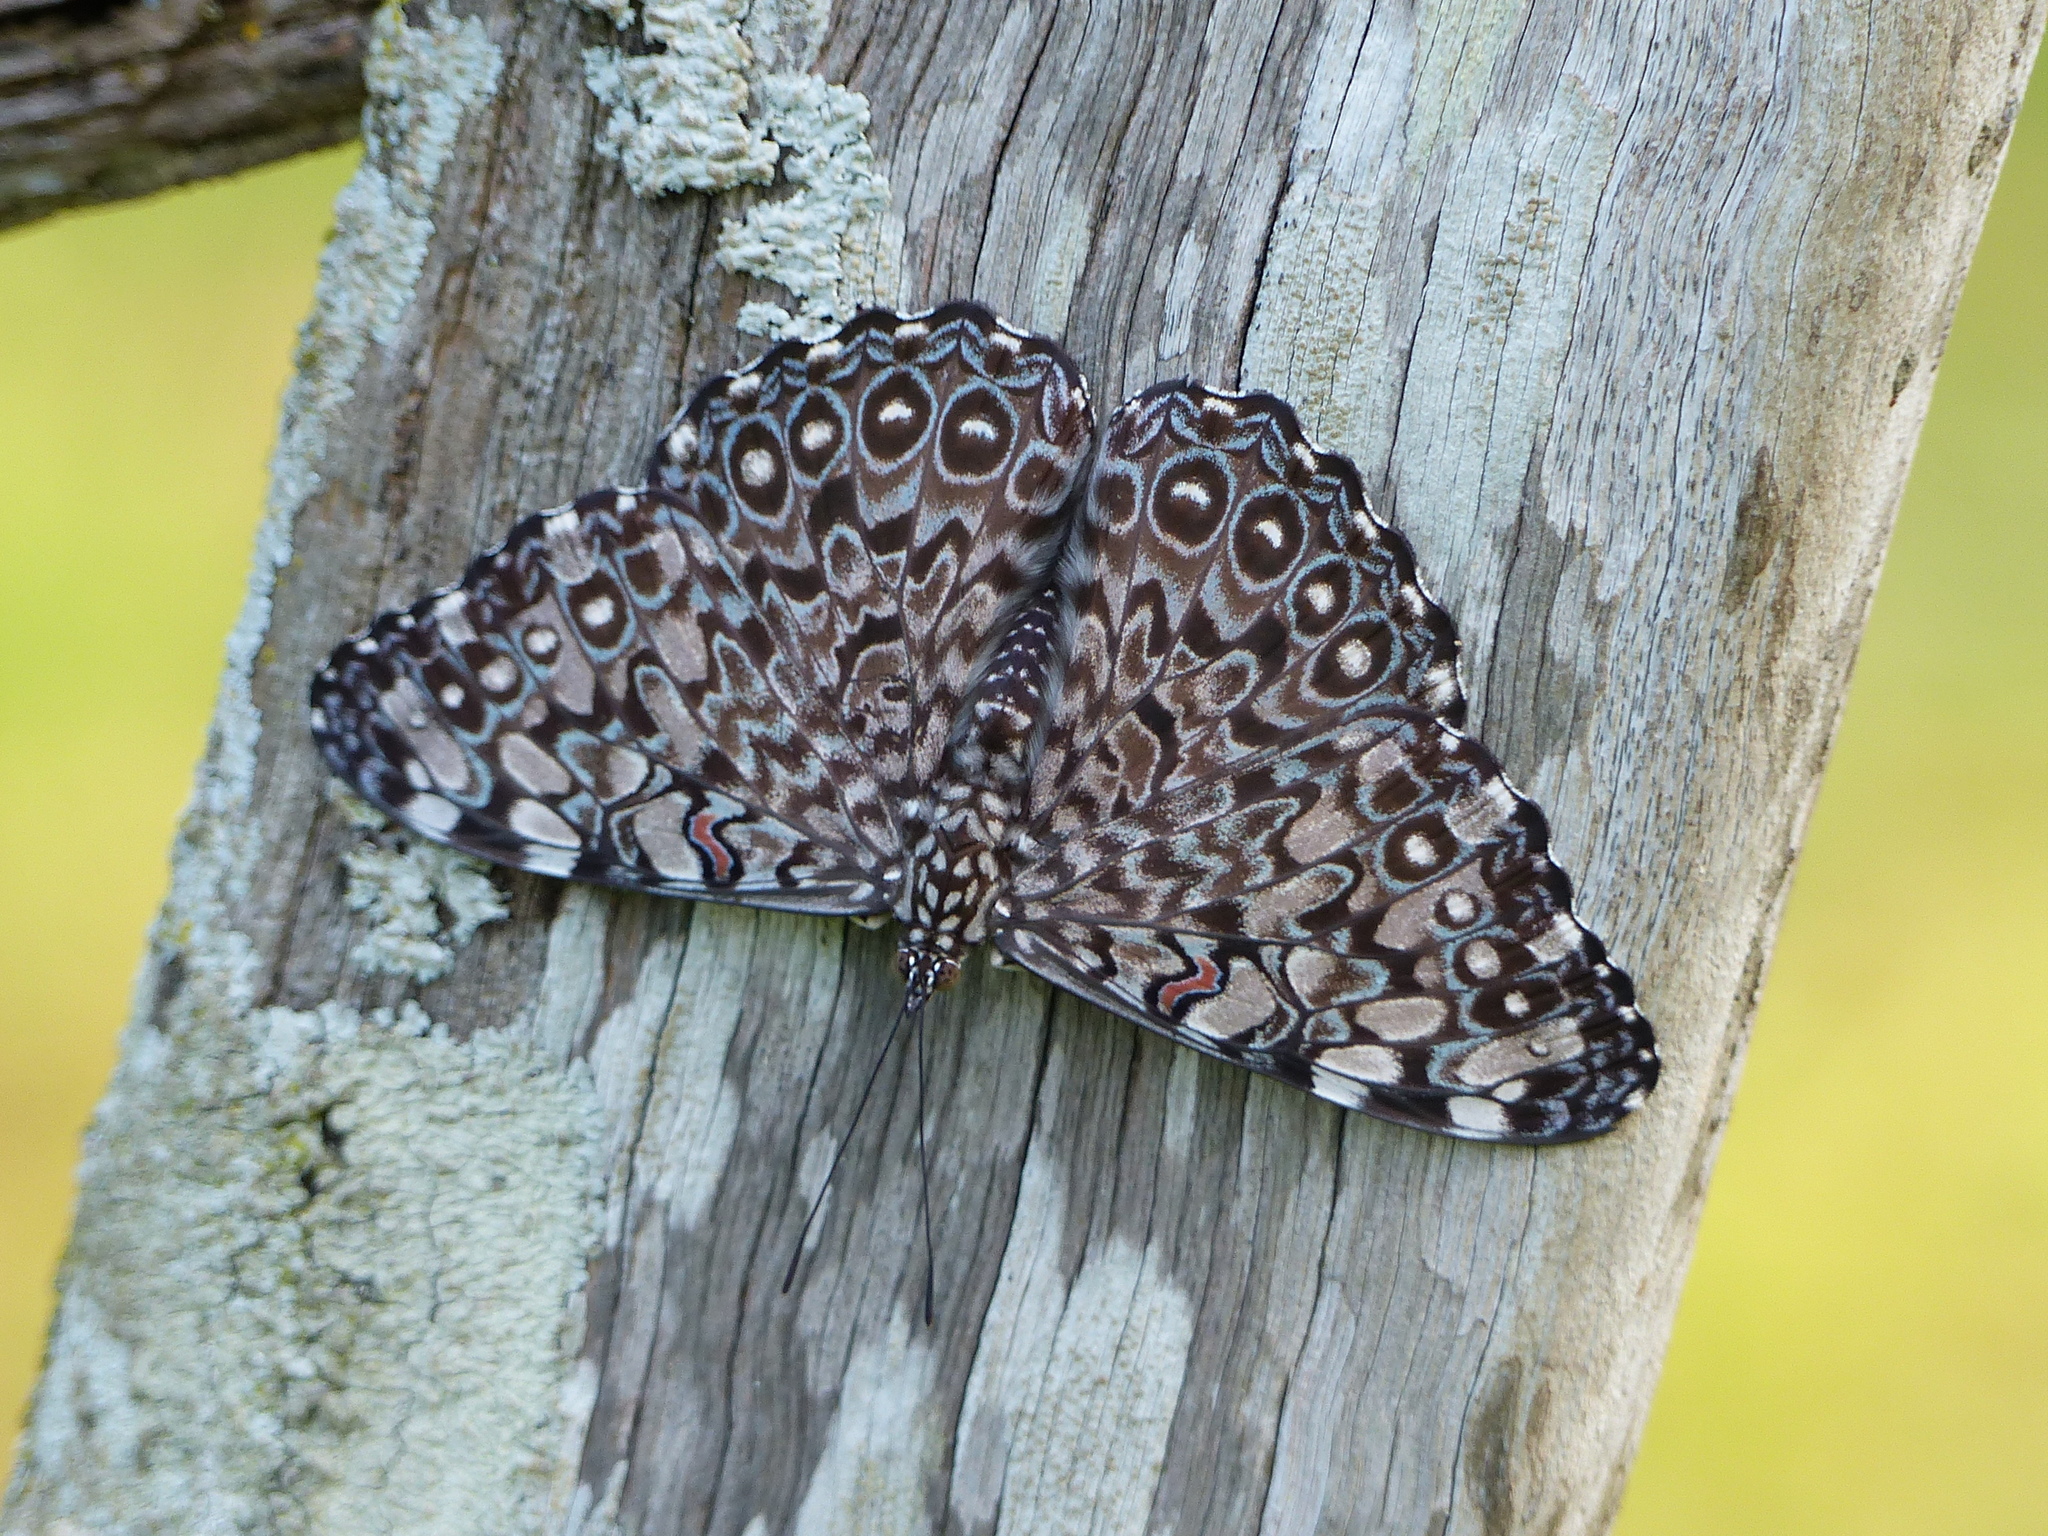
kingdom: Animalia
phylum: Arthropoda
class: Insecta
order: Lepidoptera
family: Nymphalidae
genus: Hamadryas
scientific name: Hamadryas feronia
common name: Variable cracker
